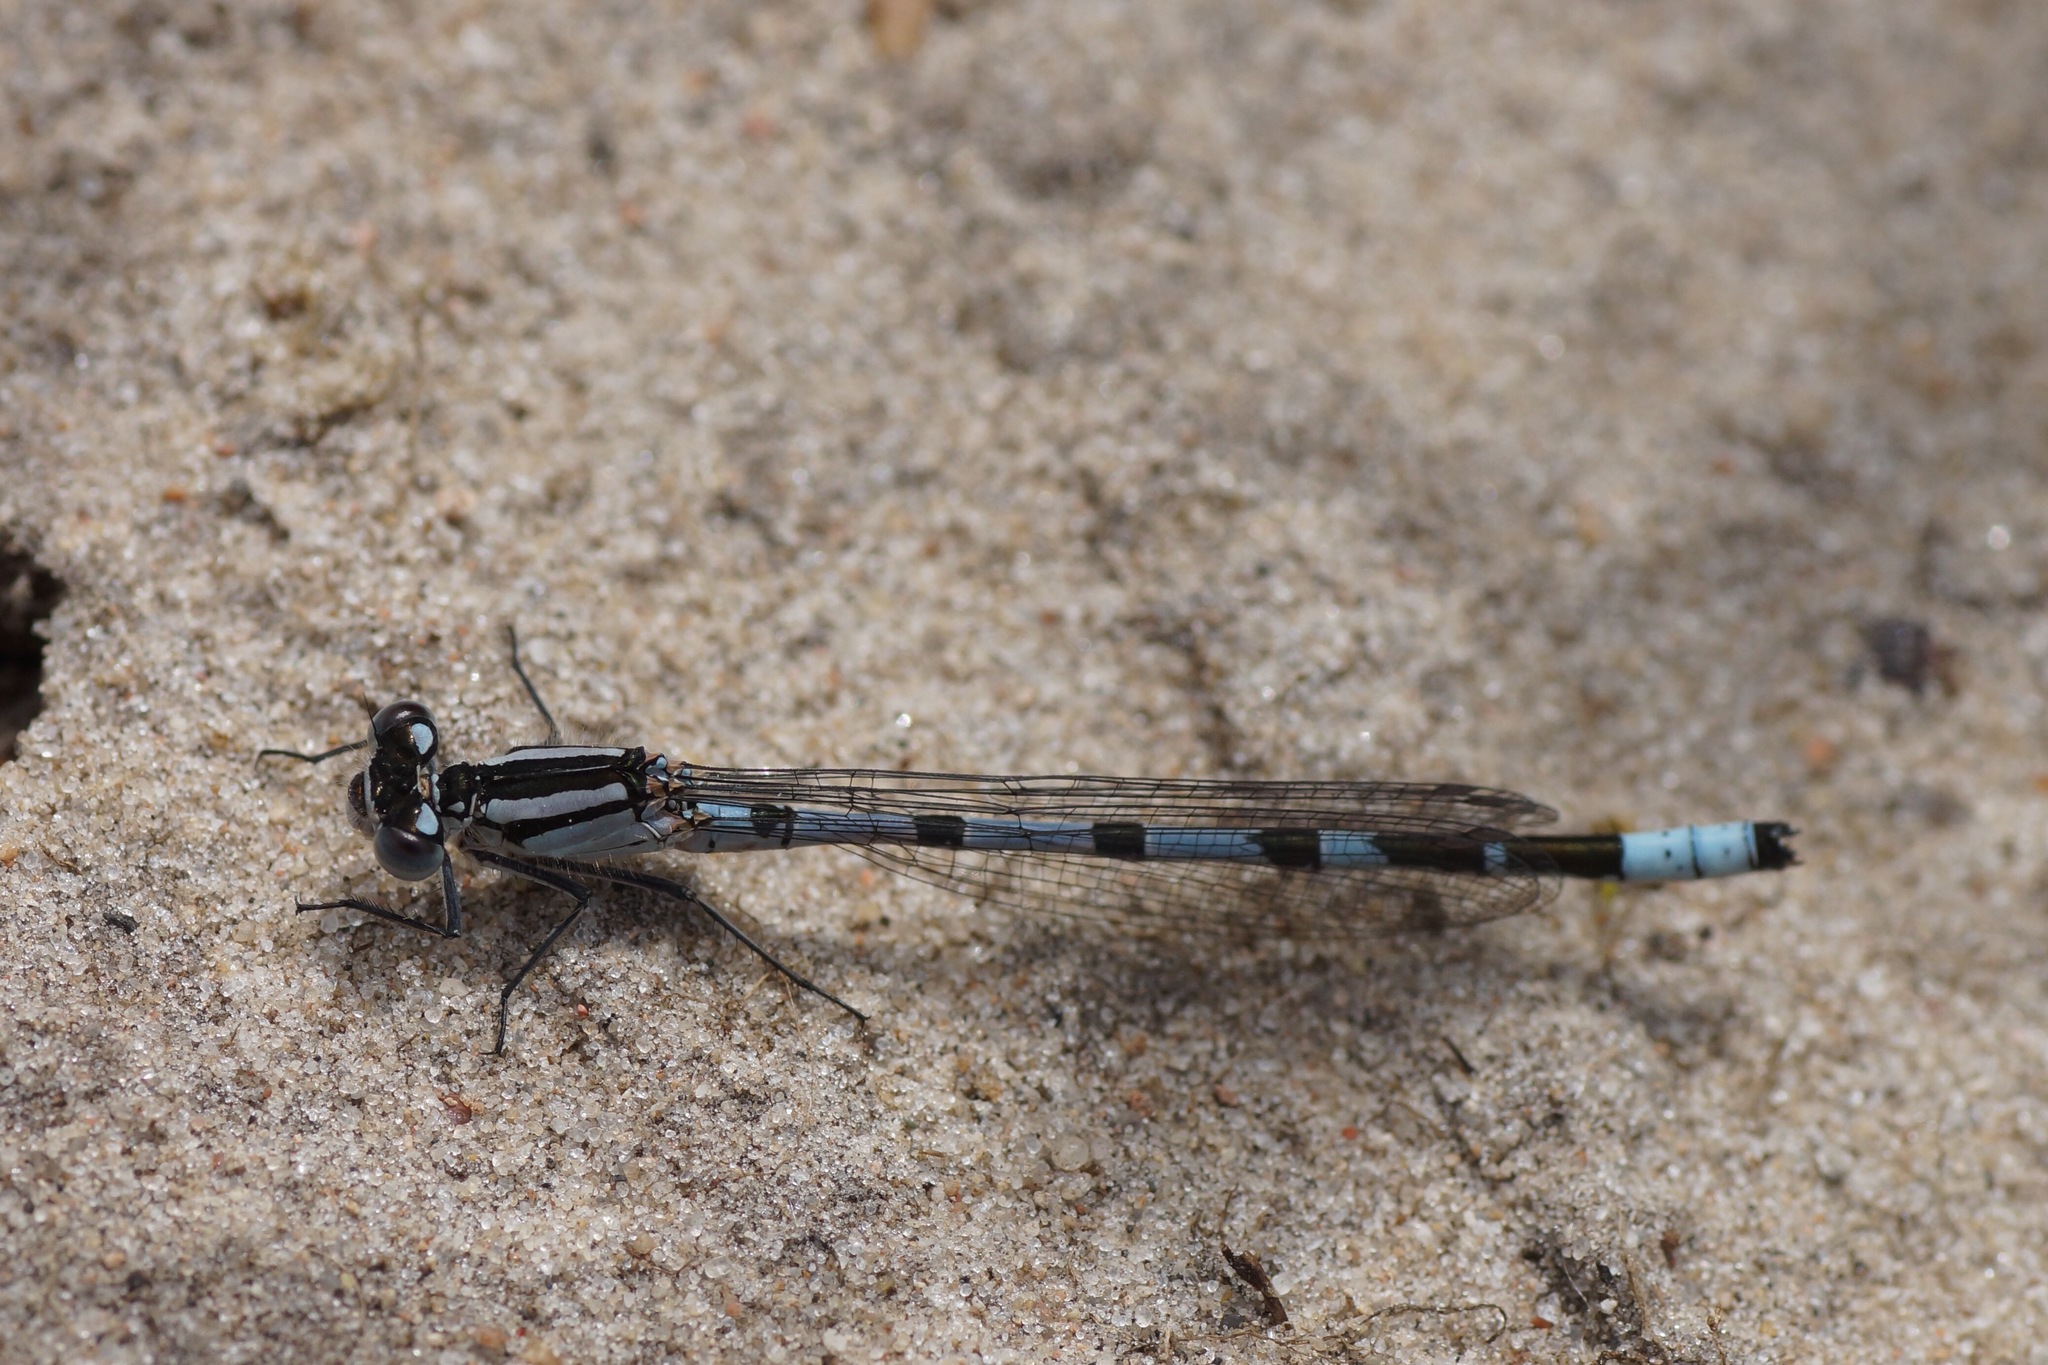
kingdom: Animalia
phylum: Arthropoda
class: Insecta
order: Odonata
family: Coenagrionidae
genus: Enallagma
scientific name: Enallagma cyathigerum
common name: Common blue damselfly
